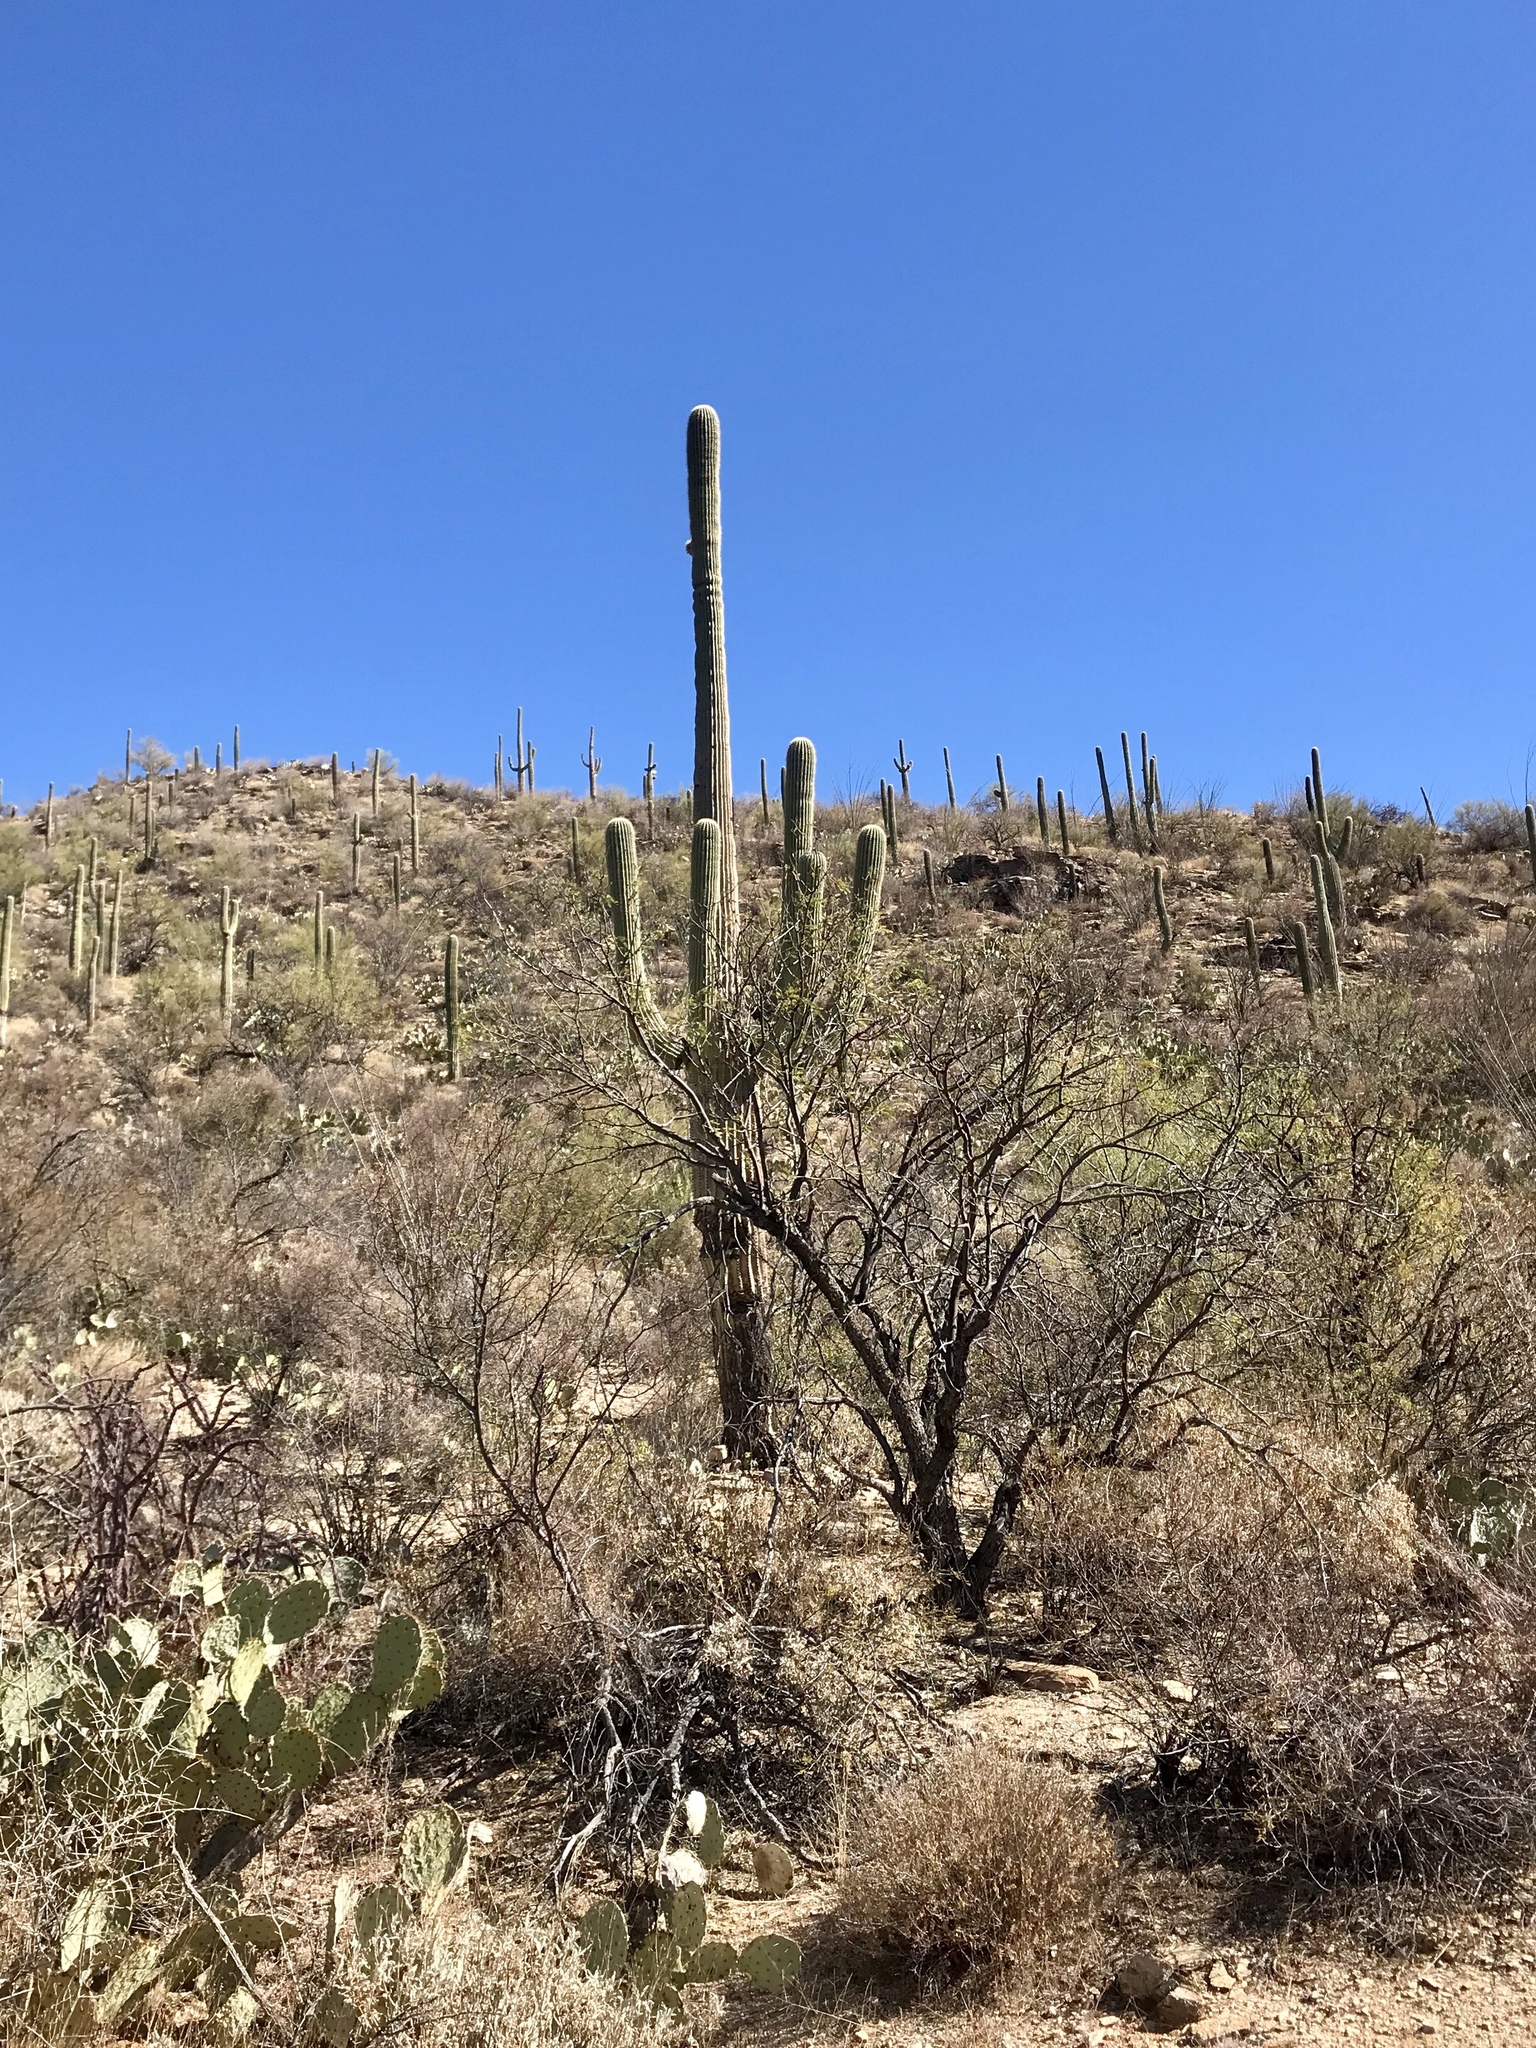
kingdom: Plantae
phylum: Tracheophyta
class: Magnoliopsida
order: Caryophyllales
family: Cactaceae
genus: Carnegiea
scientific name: Carnegiea gigantea
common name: Saguaro
